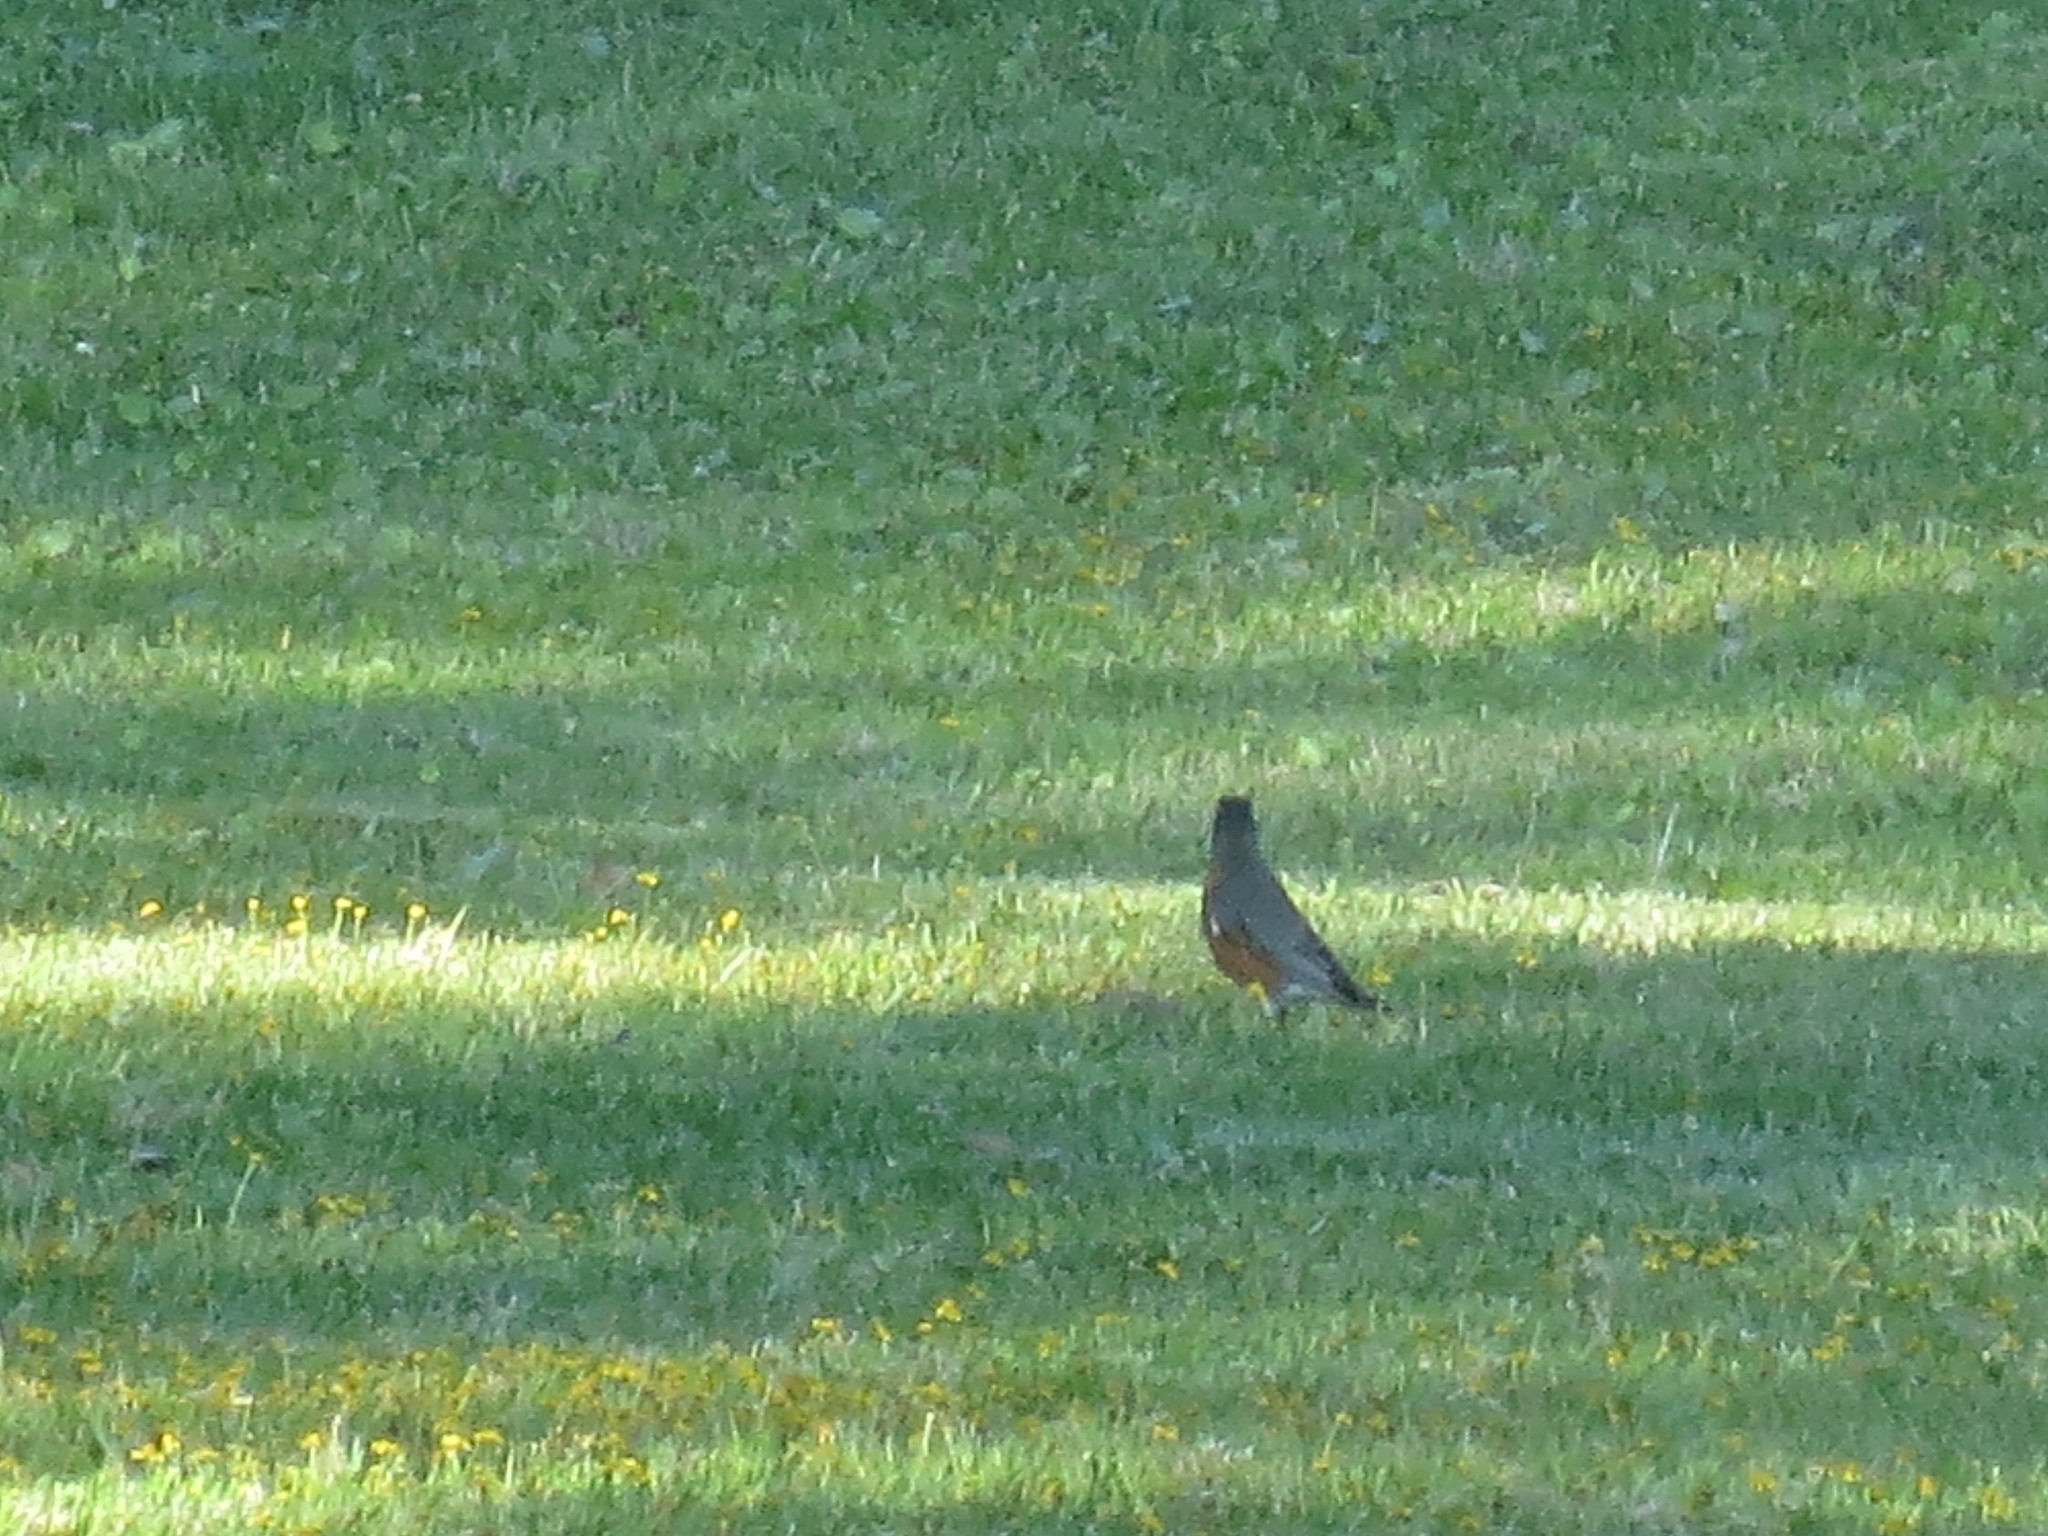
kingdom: Animalia
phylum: Chordata
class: Aves
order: Passeriformes
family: Turdidae
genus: Turdus
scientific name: Turdus migratorius
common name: American robin
